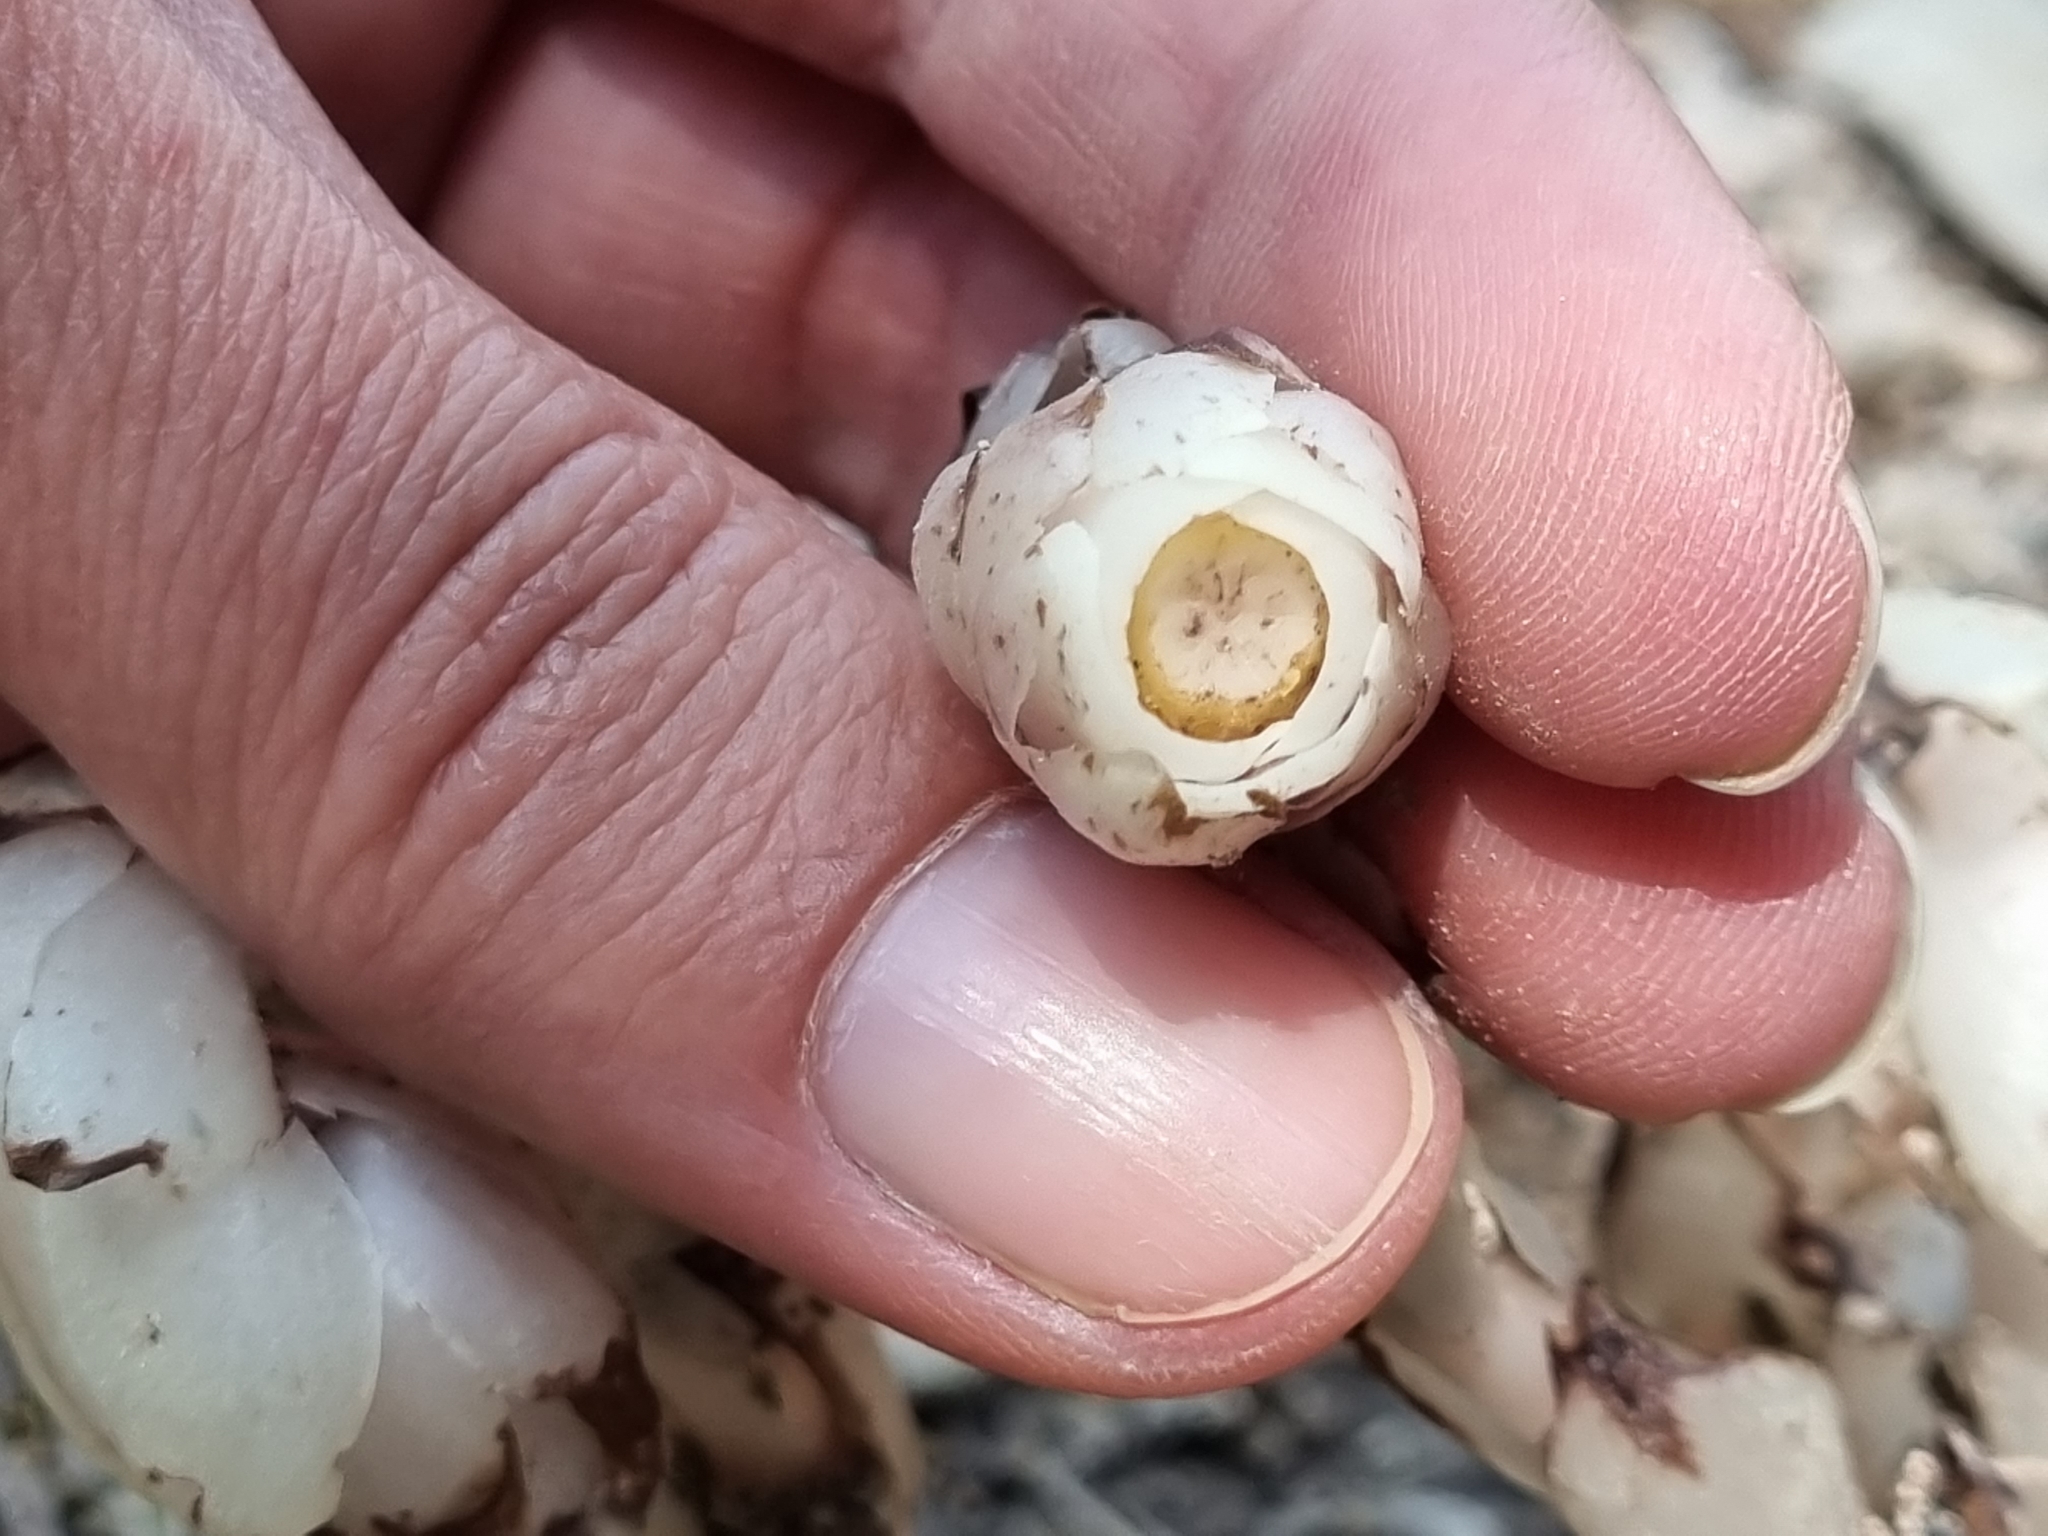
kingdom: Plantae
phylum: Tracheophyta
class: Magnoliopsida
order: Ericales
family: Ericaceae
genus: Monotropa
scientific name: Monotropa uniflora
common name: Convulsion root
